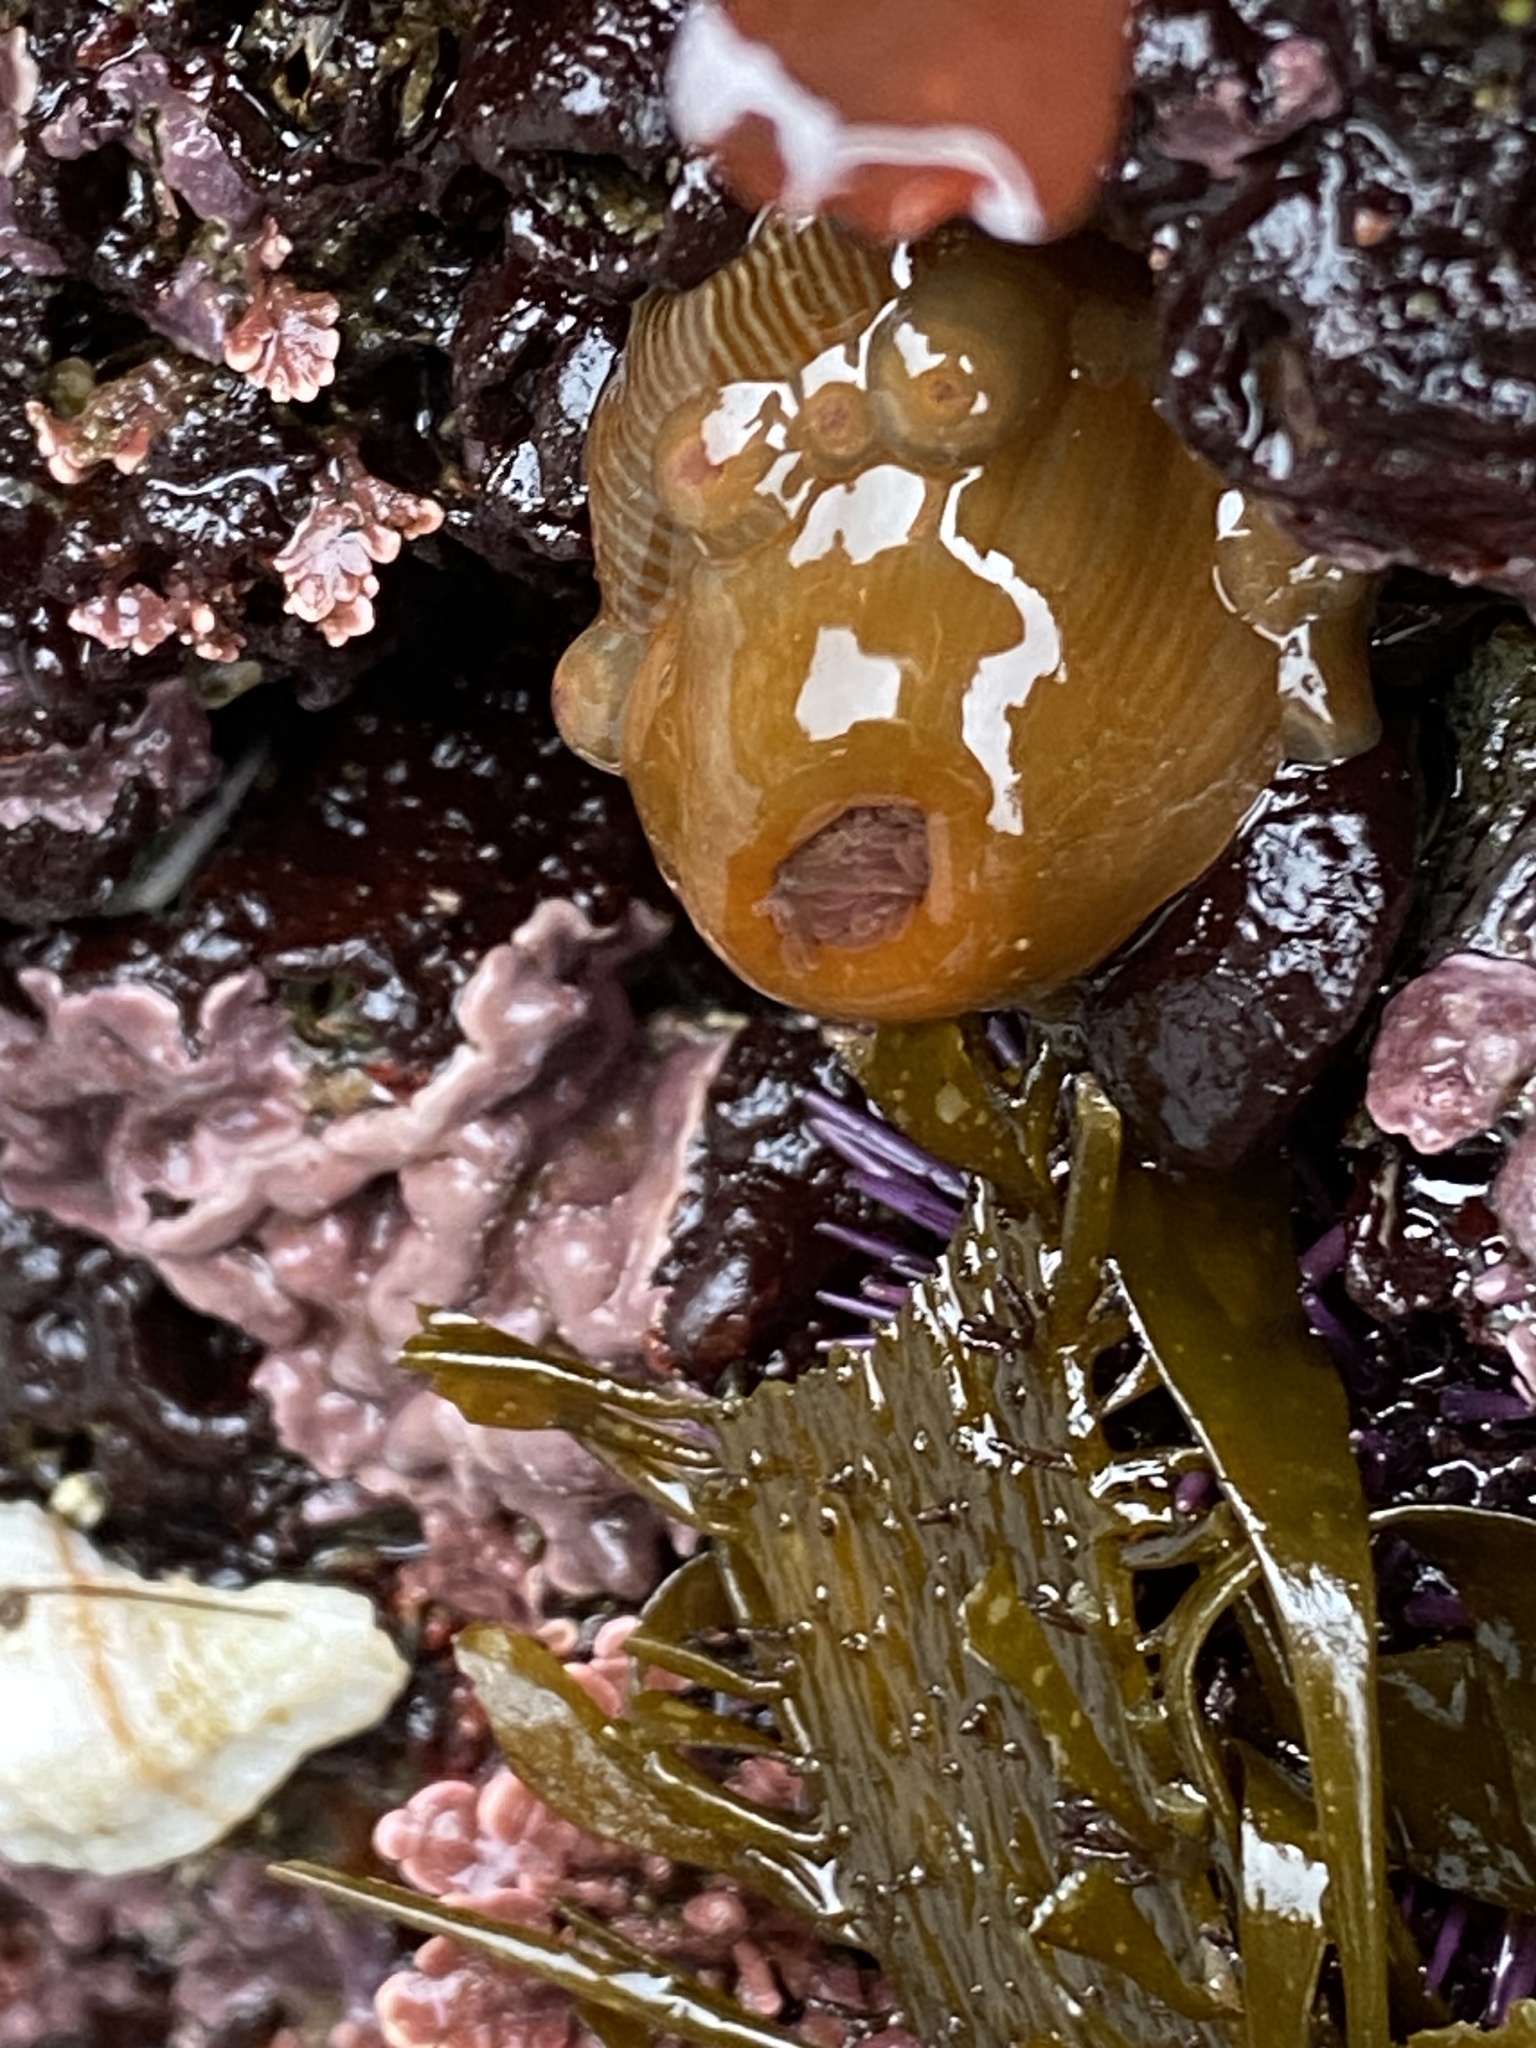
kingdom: Animalia
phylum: Cnidaria
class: Anthozoa
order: Actiniaria
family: Actiniidae
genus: Epiactis
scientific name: Epiactis prolifera
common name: Brooding anemone
